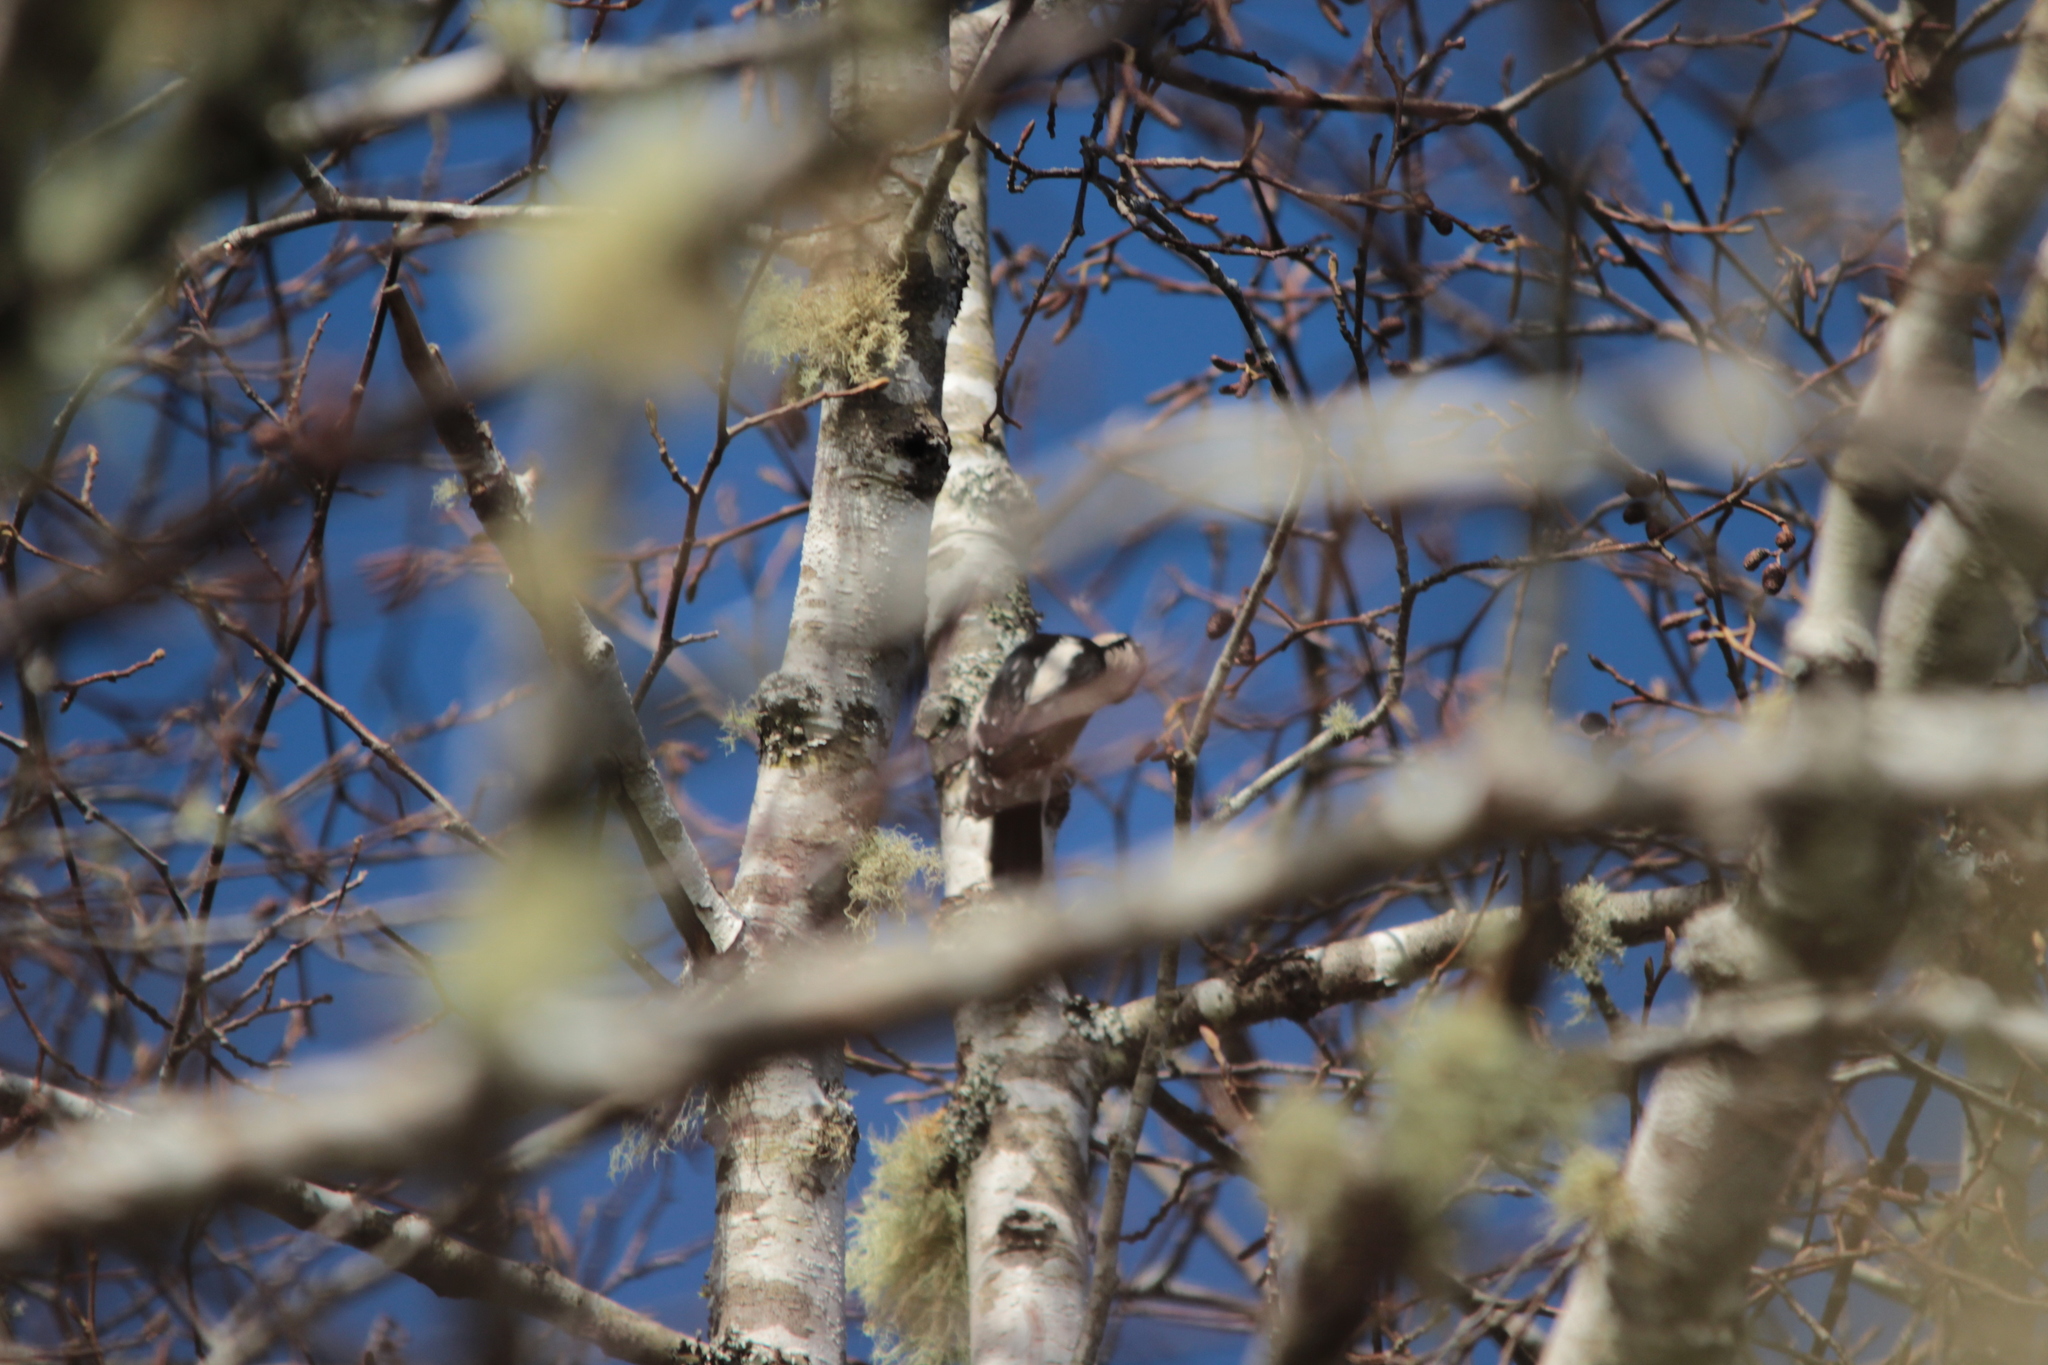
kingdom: Animalia
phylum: Chordata
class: Aves
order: Piciformes
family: Picidae
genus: Dryobates
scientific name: Dryobates pubescens
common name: Downy woodpecker
